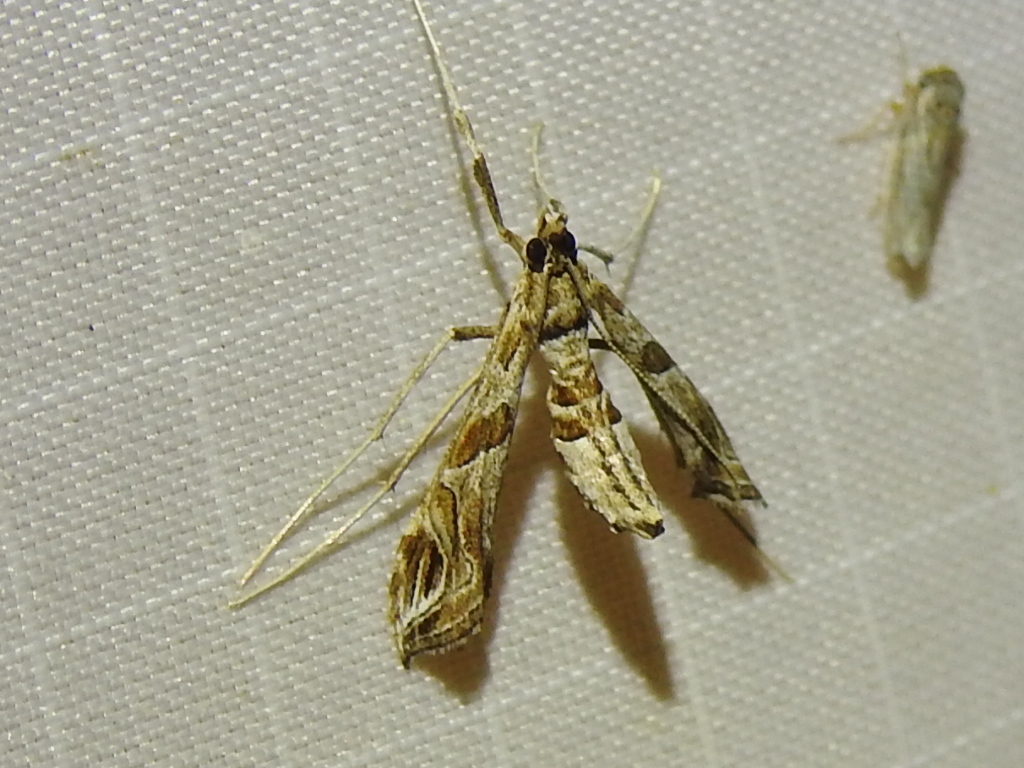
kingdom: Animalia
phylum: Arthropoda
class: Insecta
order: Lepidoptera
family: Crambidae
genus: Lineodes
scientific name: Lineodes interrupta
